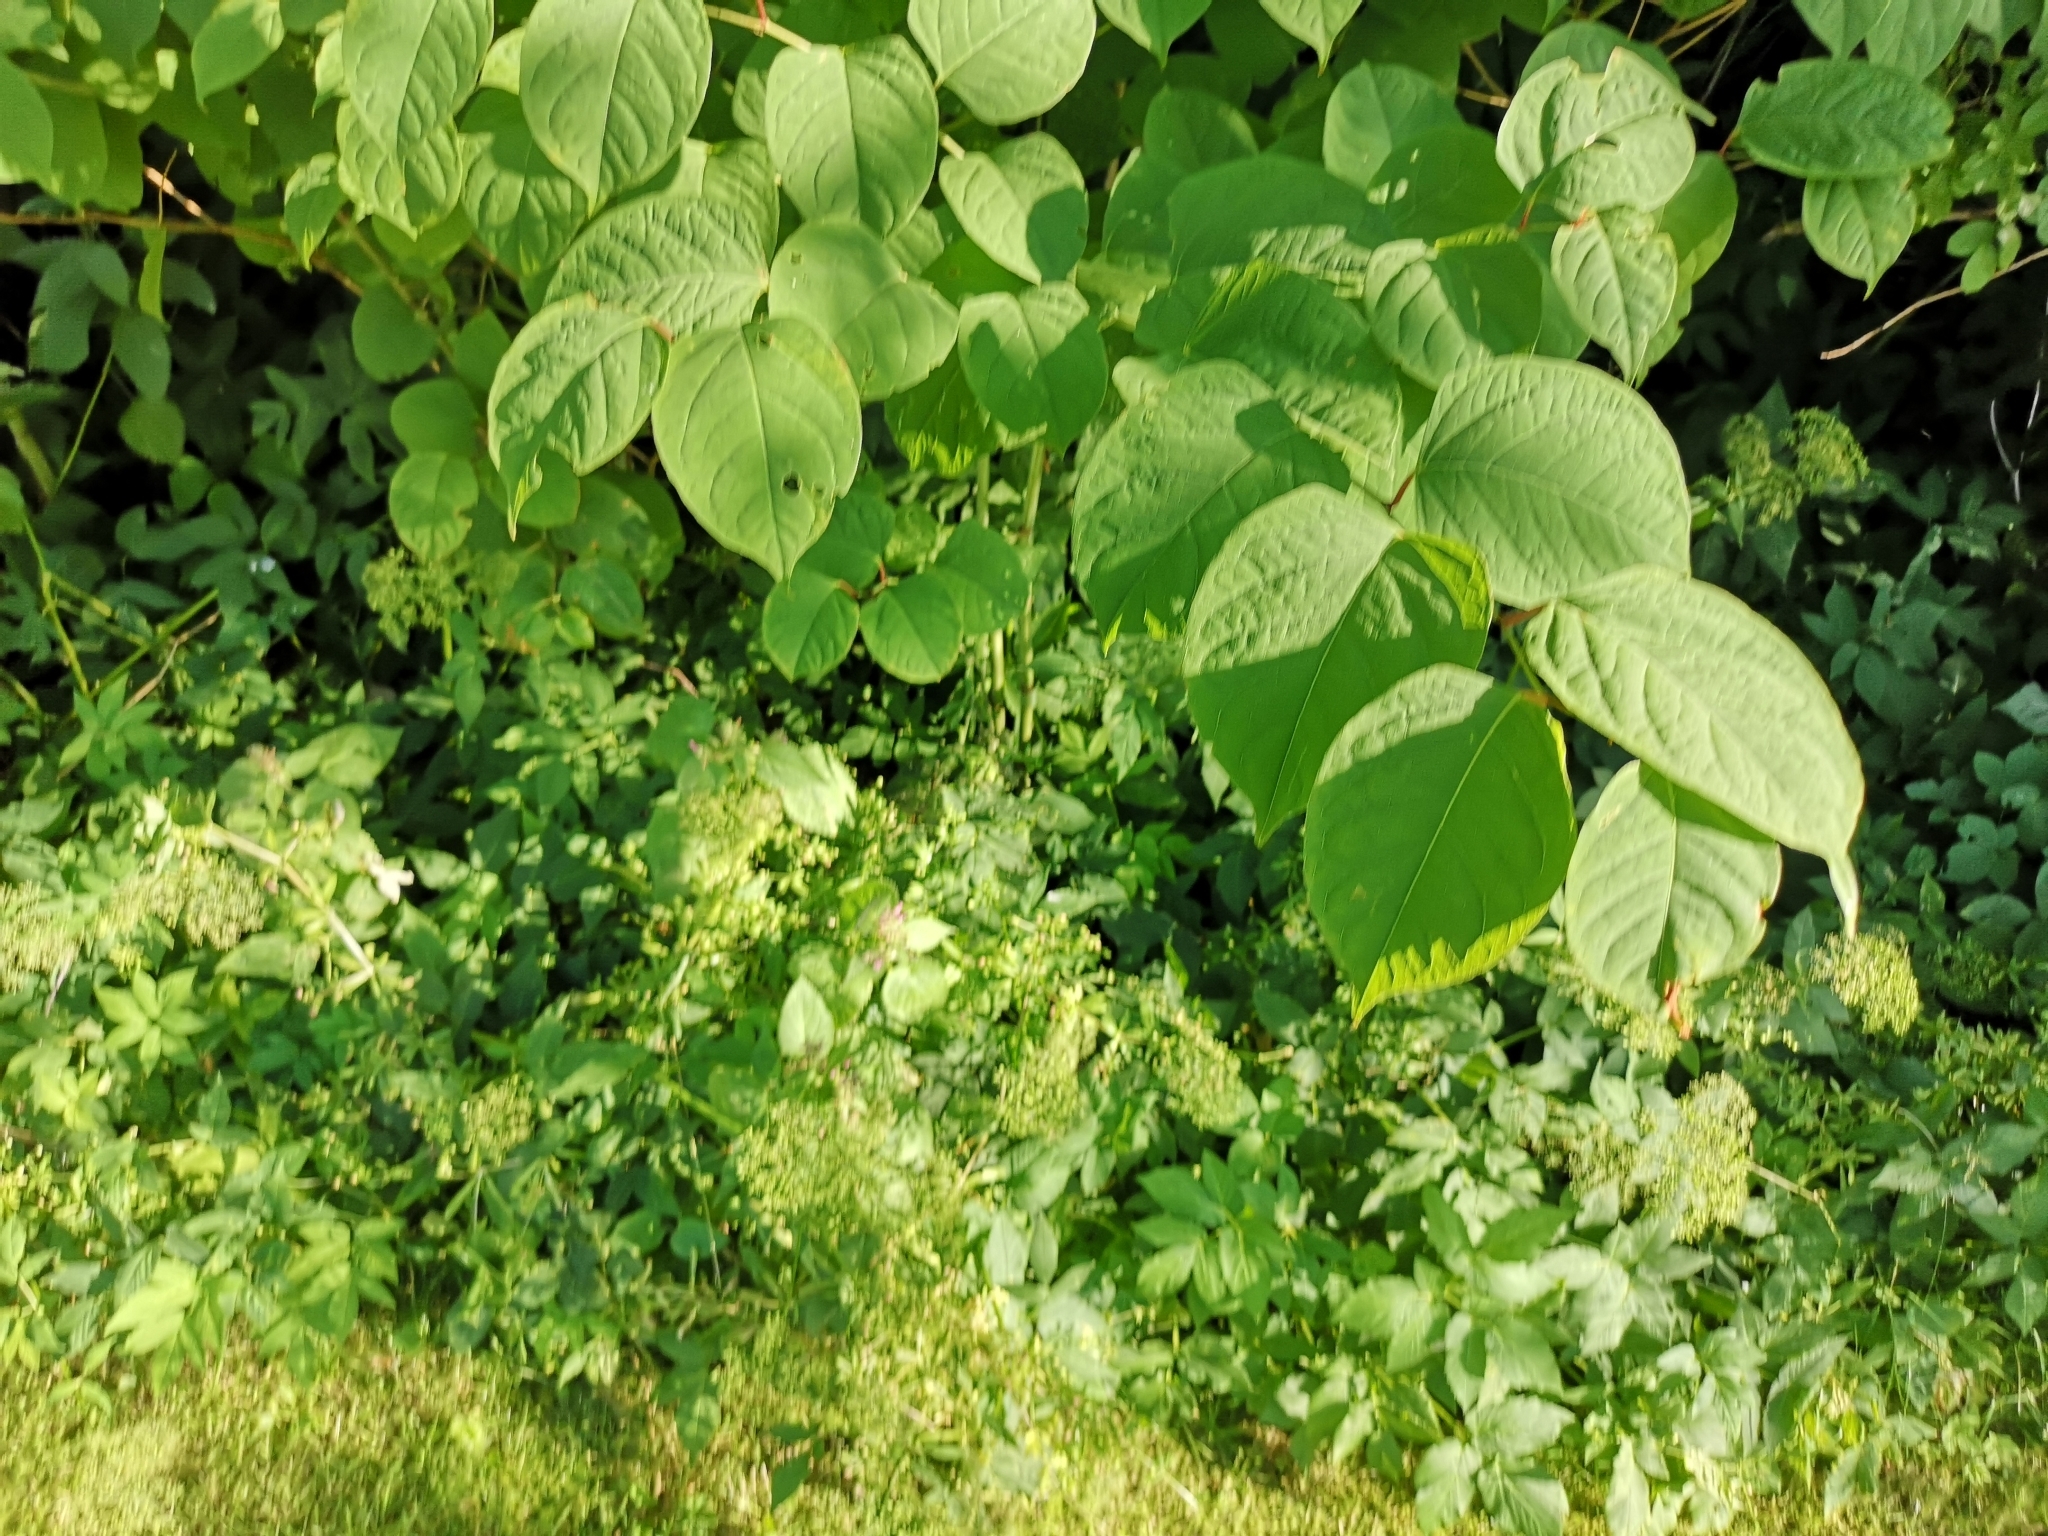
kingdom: Plantae
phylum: Tracheophyta
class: Magnoliopsida
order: Caryophyllales
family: Polygonaceae
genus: Reynoutria
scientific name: Reynoutria japonica
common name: Japanese knotweed
